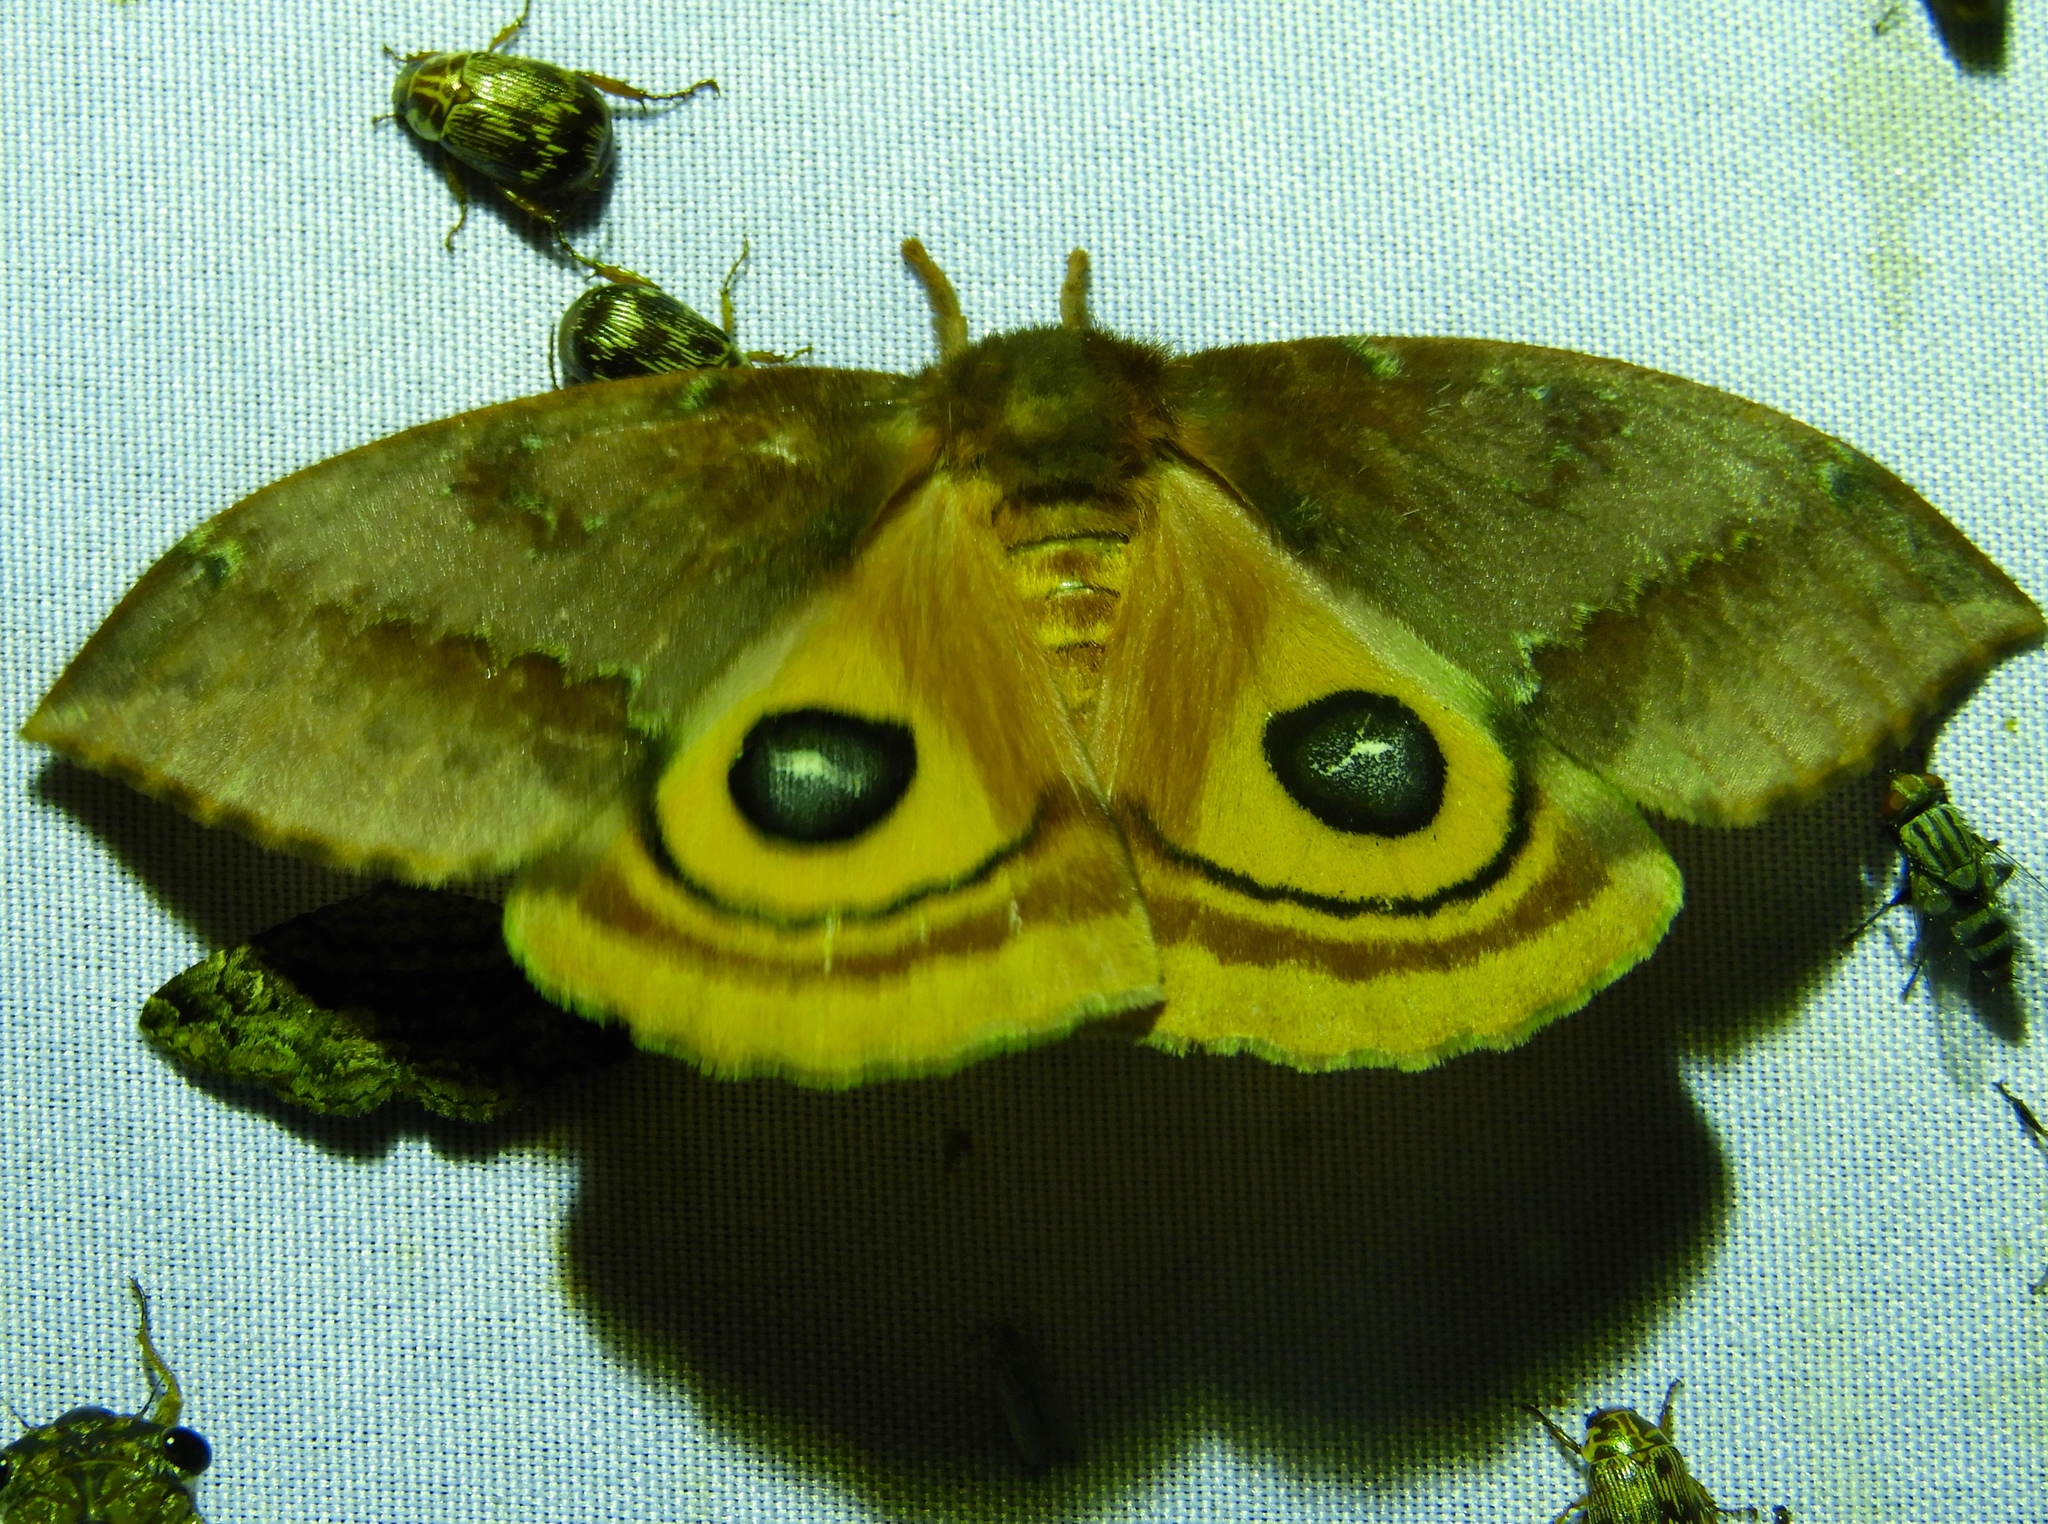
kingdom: Animalia
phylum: Arthropoda
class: Insecta
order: Lepidoptera
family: Saturniidae
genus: Automeris
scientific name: Automeris
